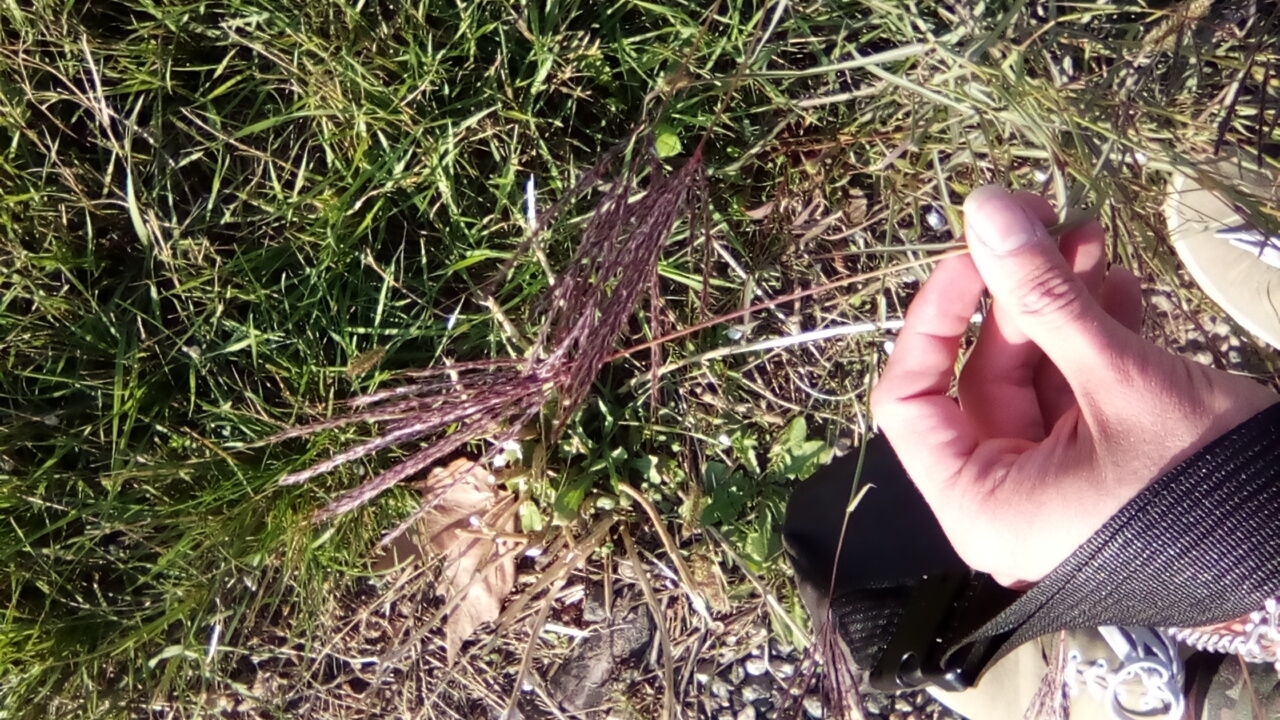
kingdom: Plantae
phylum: Tracheophyta
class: Liliopsida
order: Poales
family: Poaceae
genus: Bothriochloa
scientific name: Bothriochloa ischaemum
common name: Yellow bluestem
